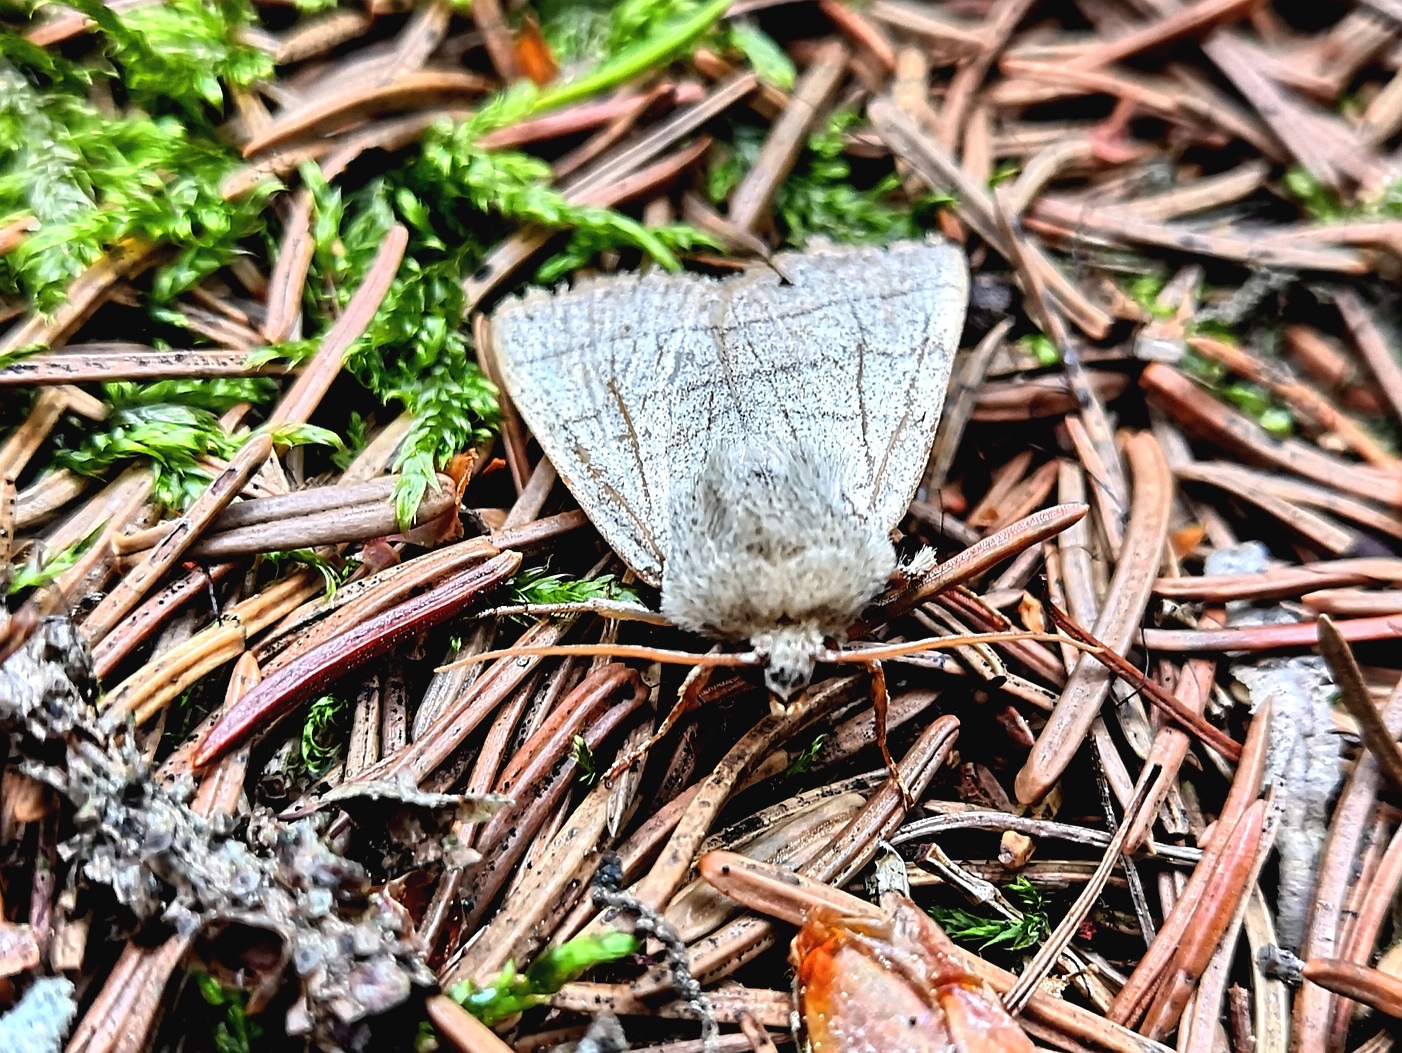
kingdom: Animalia
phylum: Arthropoda
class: Insecta
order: Lepidoptera
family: Noctuidae
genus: Charanyca
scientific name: Charanyca trigrammica
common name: Treble lines
